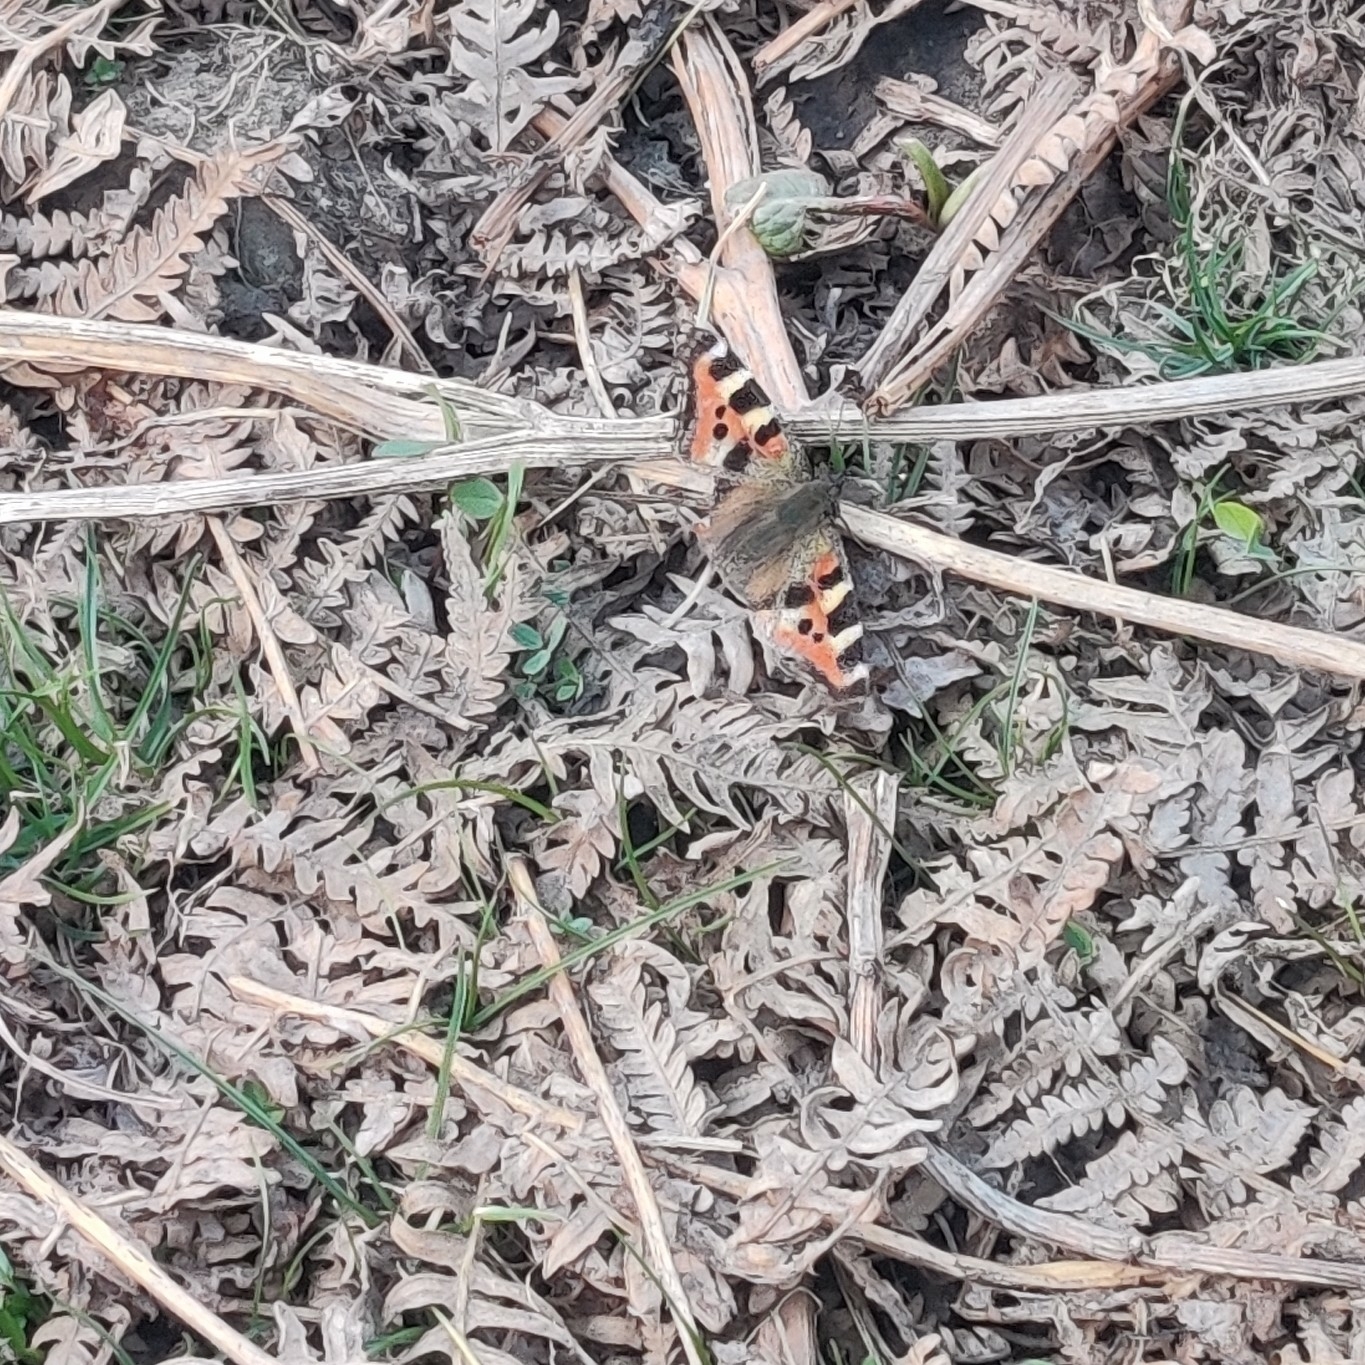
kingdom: Animalia
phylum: Arthropoda
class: Insecta
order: Lepidoptera
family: Nymphalidae
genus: Aglais
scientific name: Aglais caschmirensis
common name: Indian tortoiseshell
